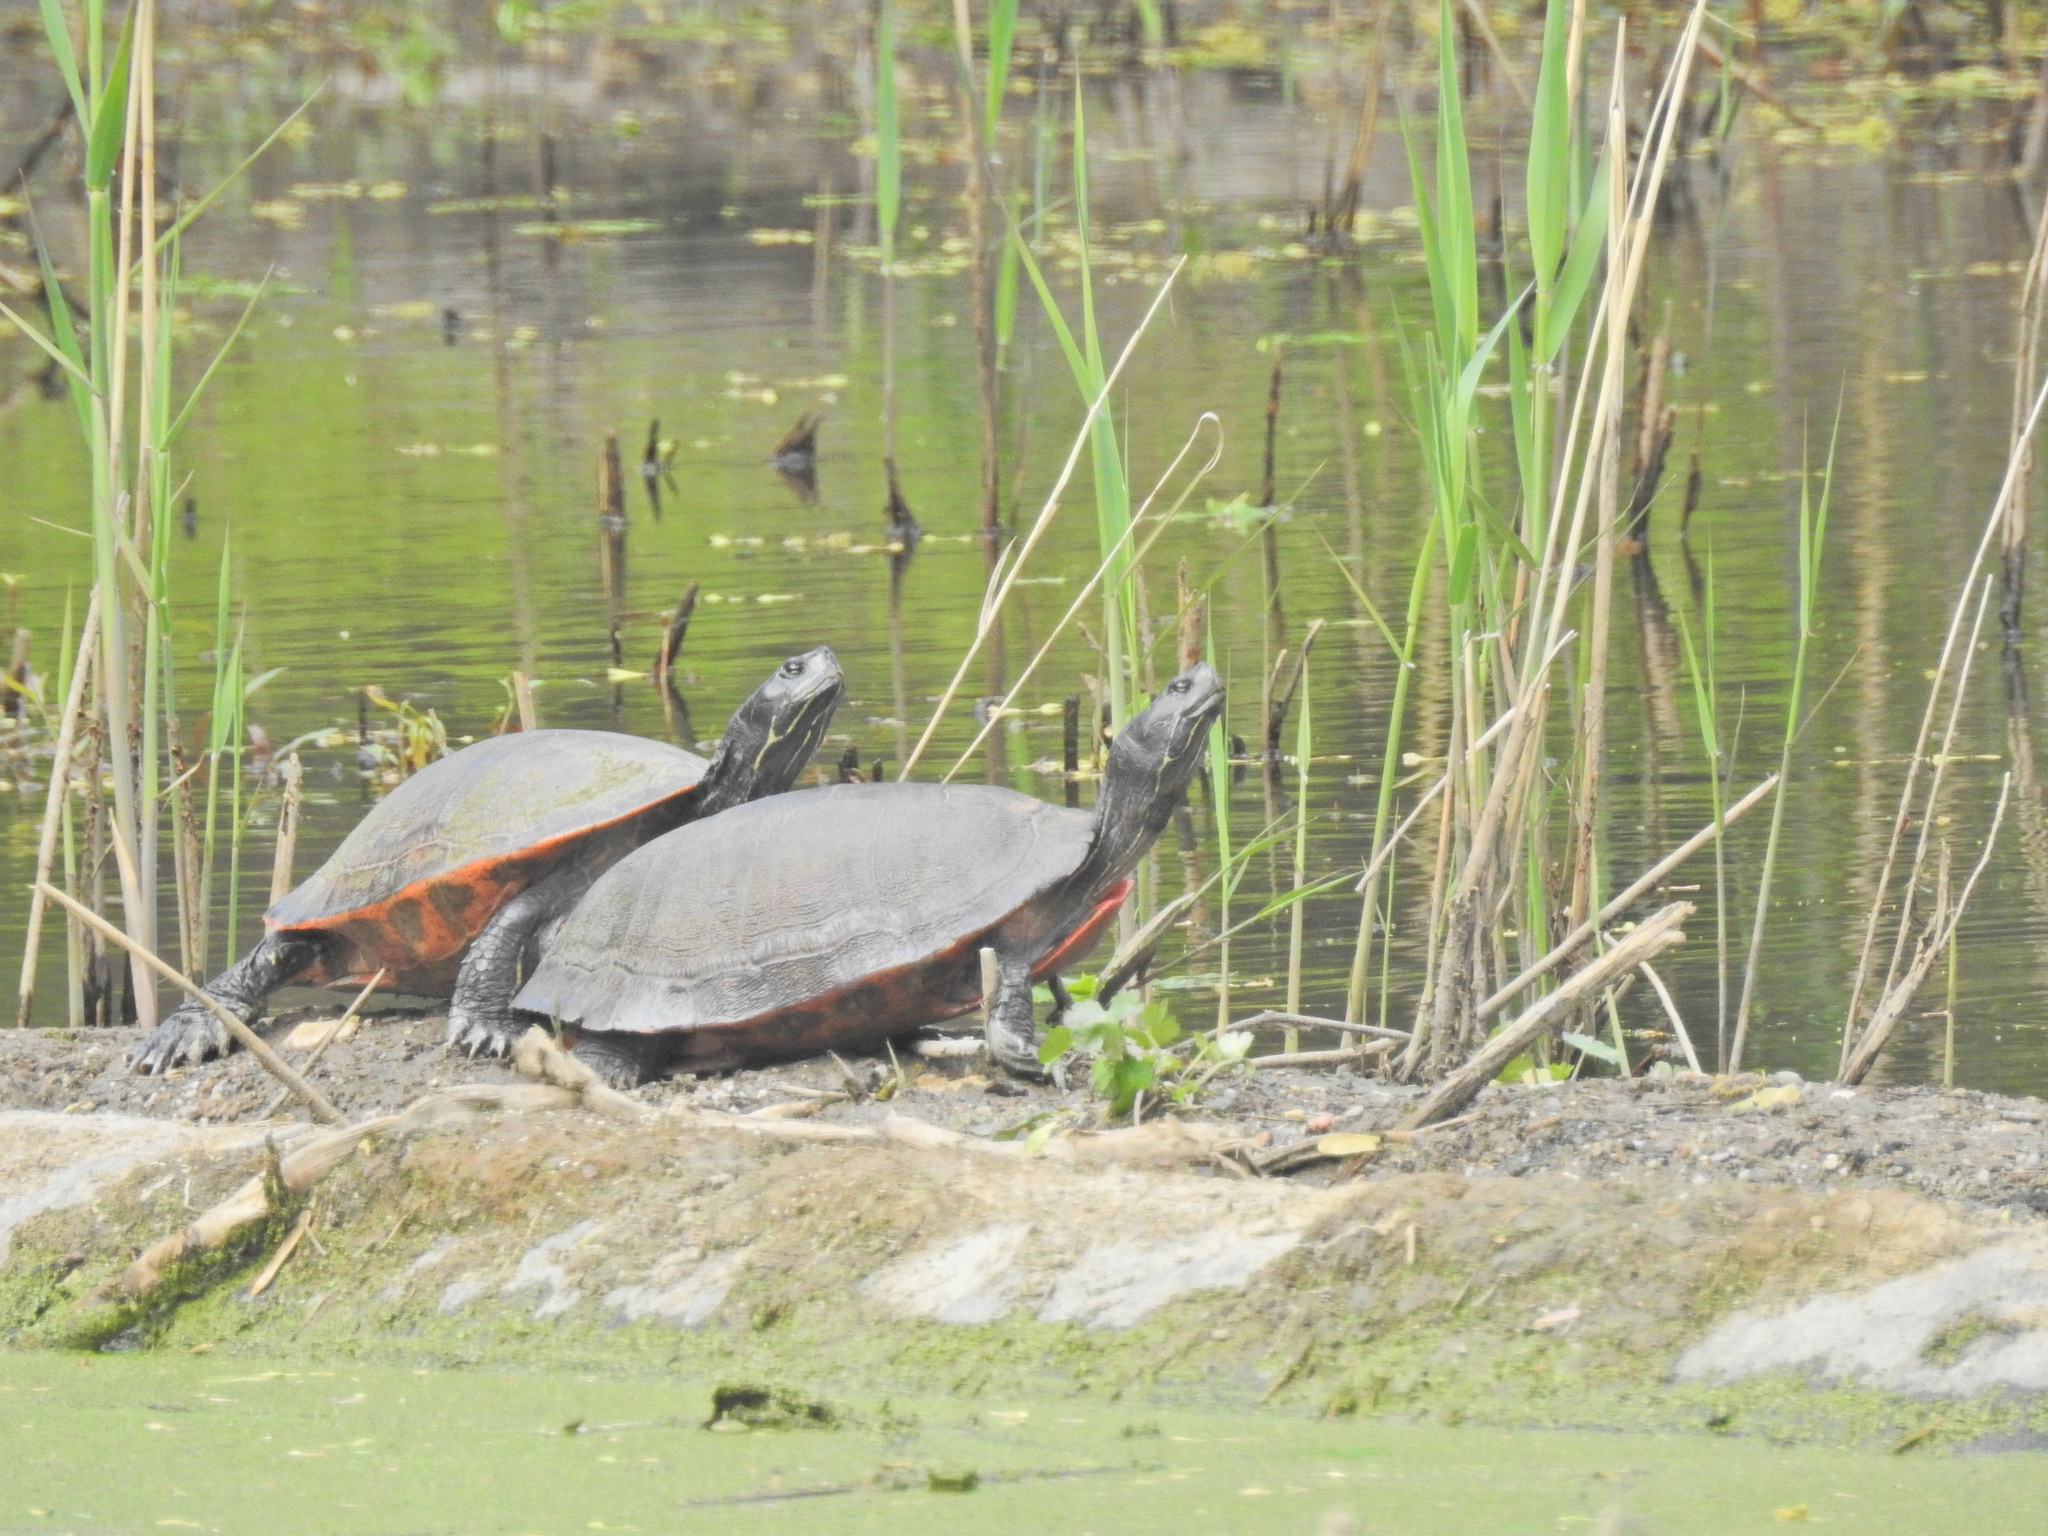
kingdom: Animalia
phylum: Chordata
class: Testudines
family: Emydidae
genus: Pseudemys
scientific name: Pseudemys rubriventris
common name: American red-bellied turtle
